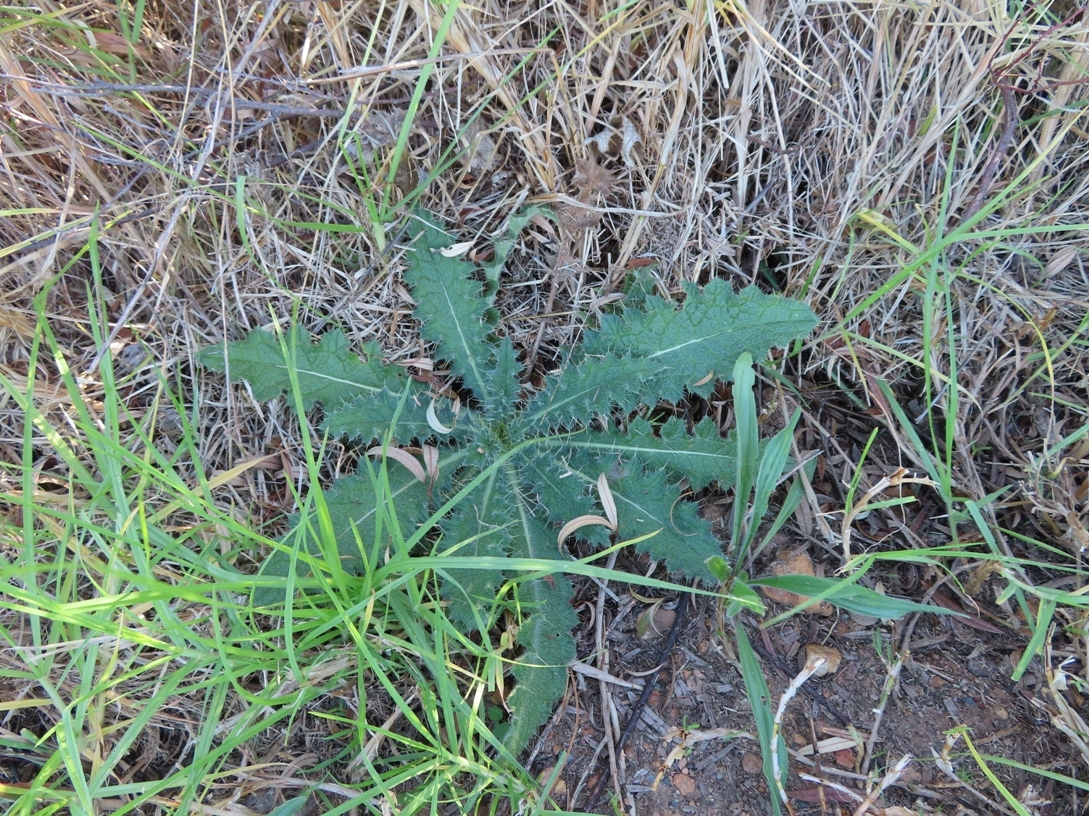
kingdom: Plantae
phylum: Tracheophyta
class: Magnoliopsida
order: Asterales
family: Asteraceae
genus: Cirsium
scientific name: Cirsium vulgare
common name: Bull thistle
